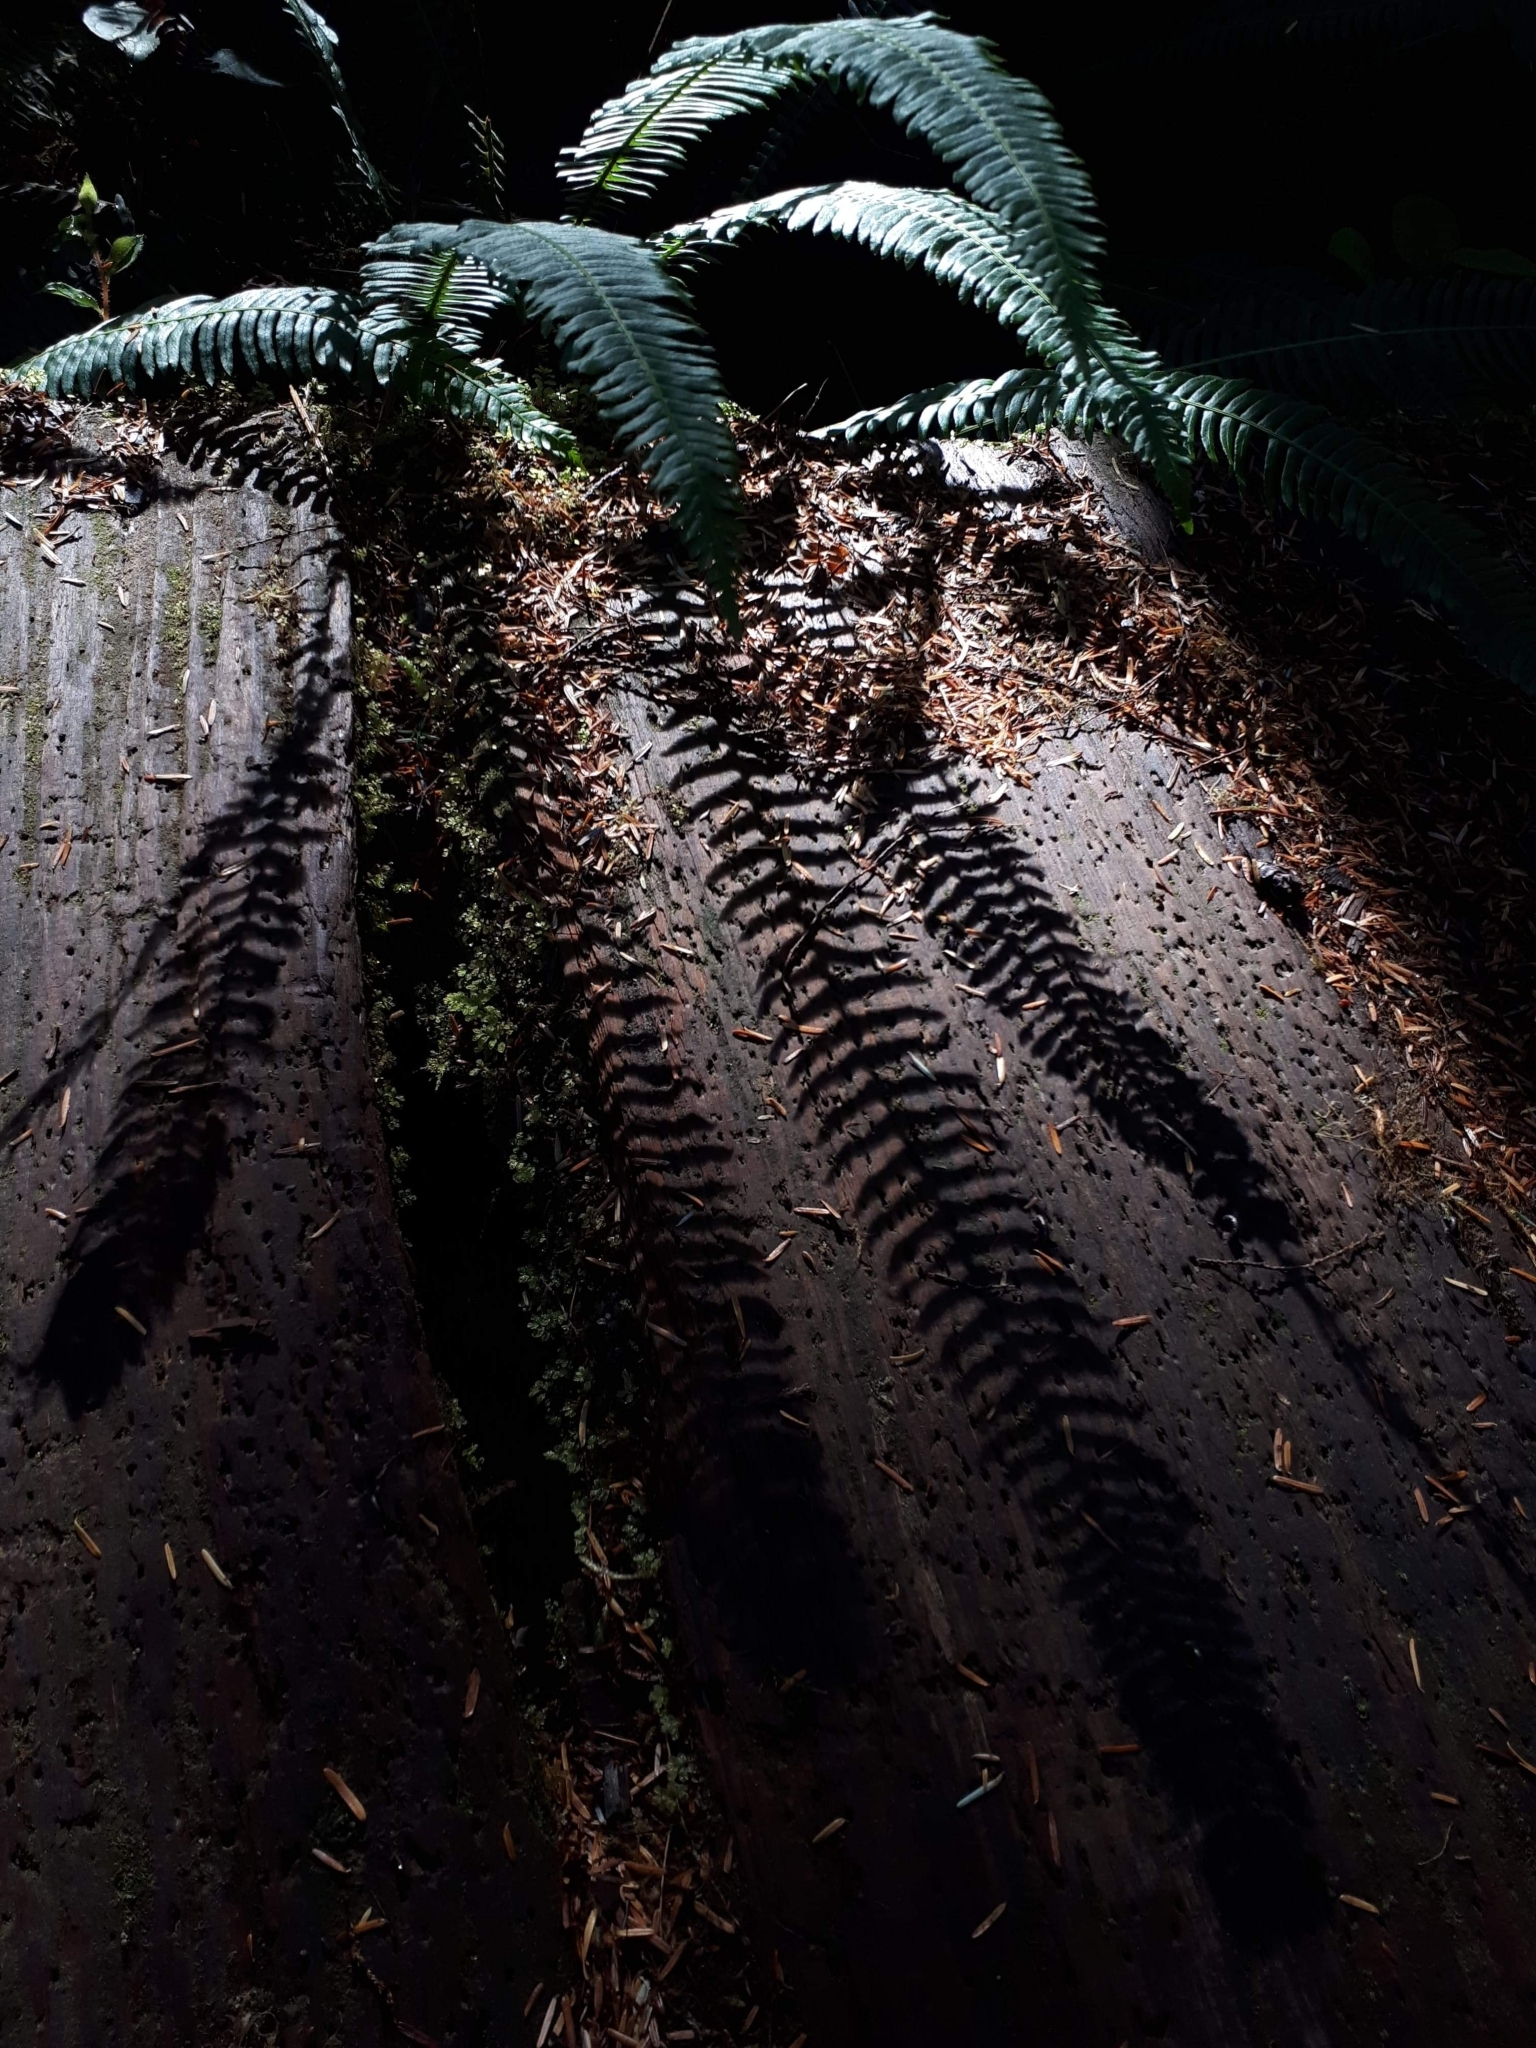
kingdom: Plantae
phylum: Tracheophyta
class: Polypodiopsida
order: Polypodiales
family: Blechnaceae
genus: Struthiopteris
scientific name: Struthiopteris spicant
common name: Deer fern
